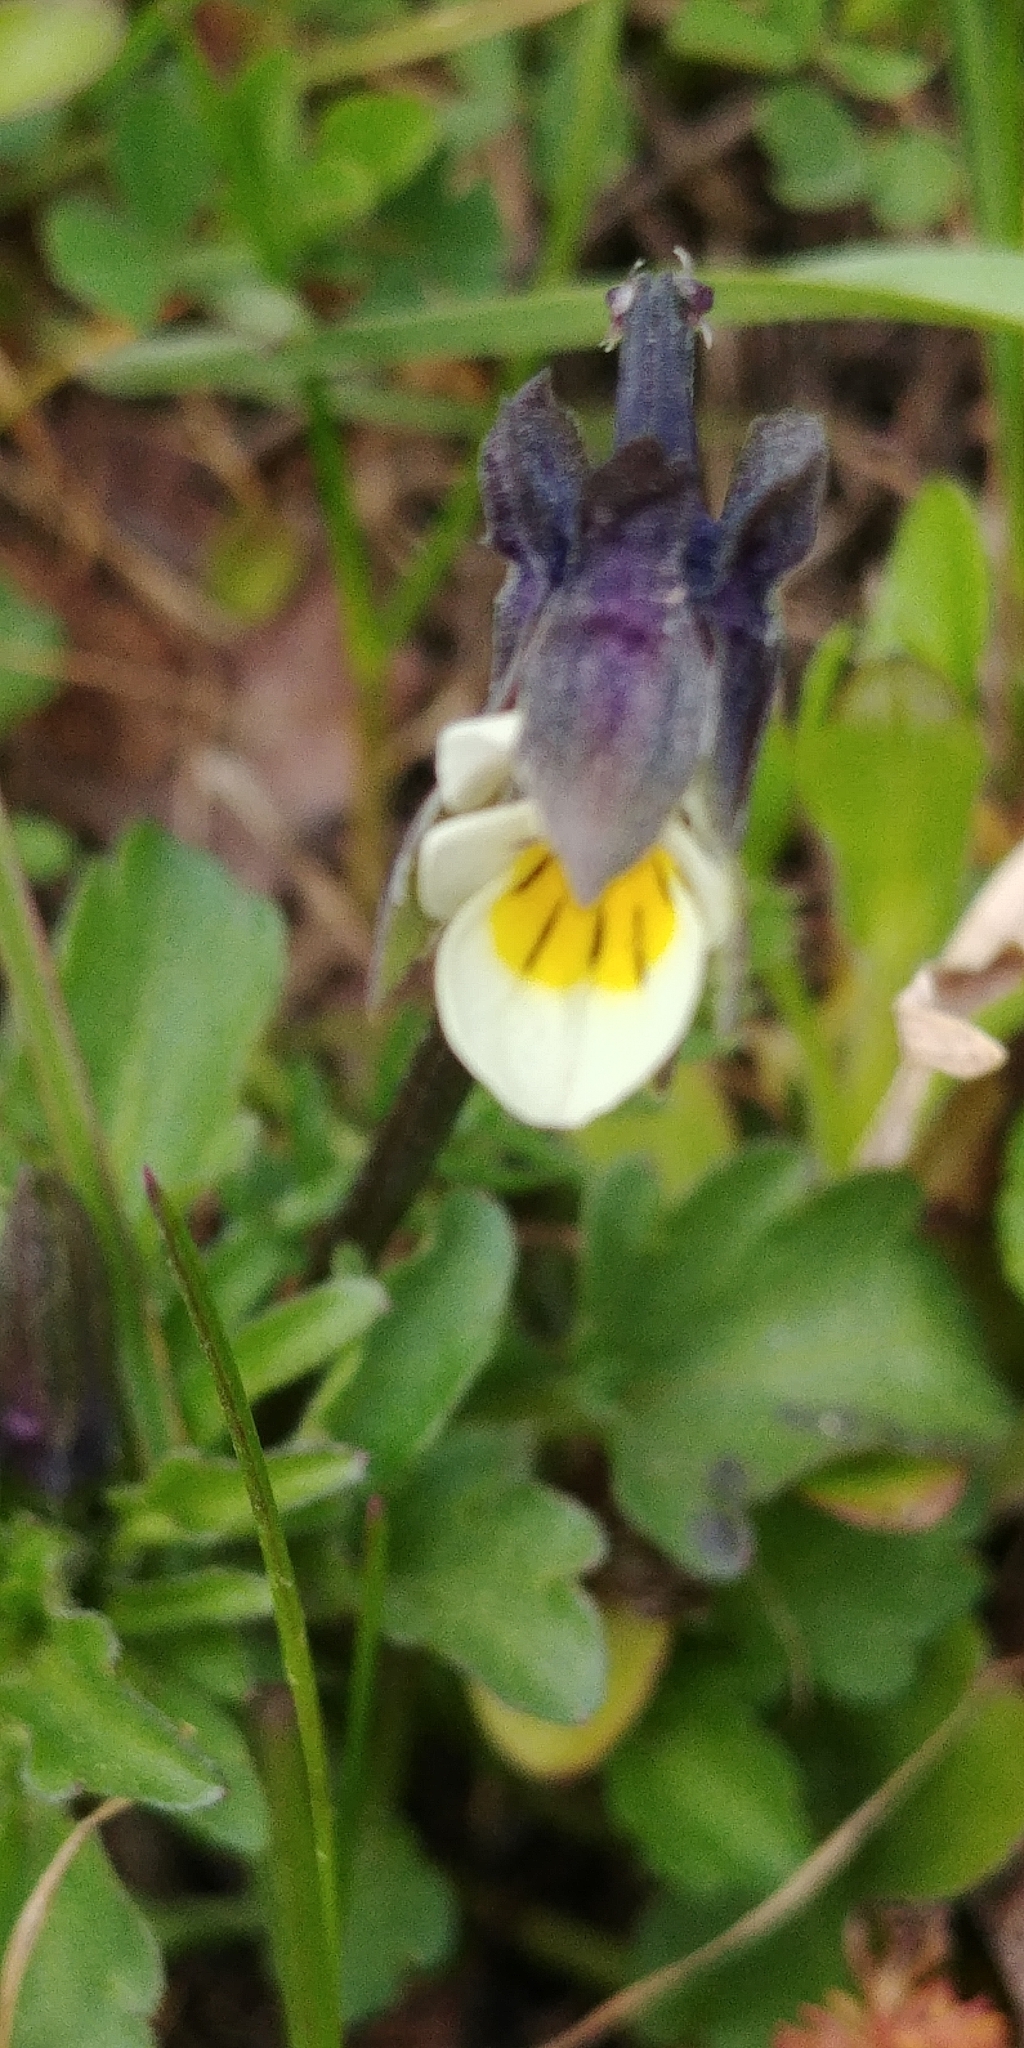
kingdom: Plantae
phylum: Tracheophyta
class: Magnoliopsida
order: Malpighiales
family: Violaceae
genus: Viola
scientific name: Viola arvensis
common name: Field pansy
